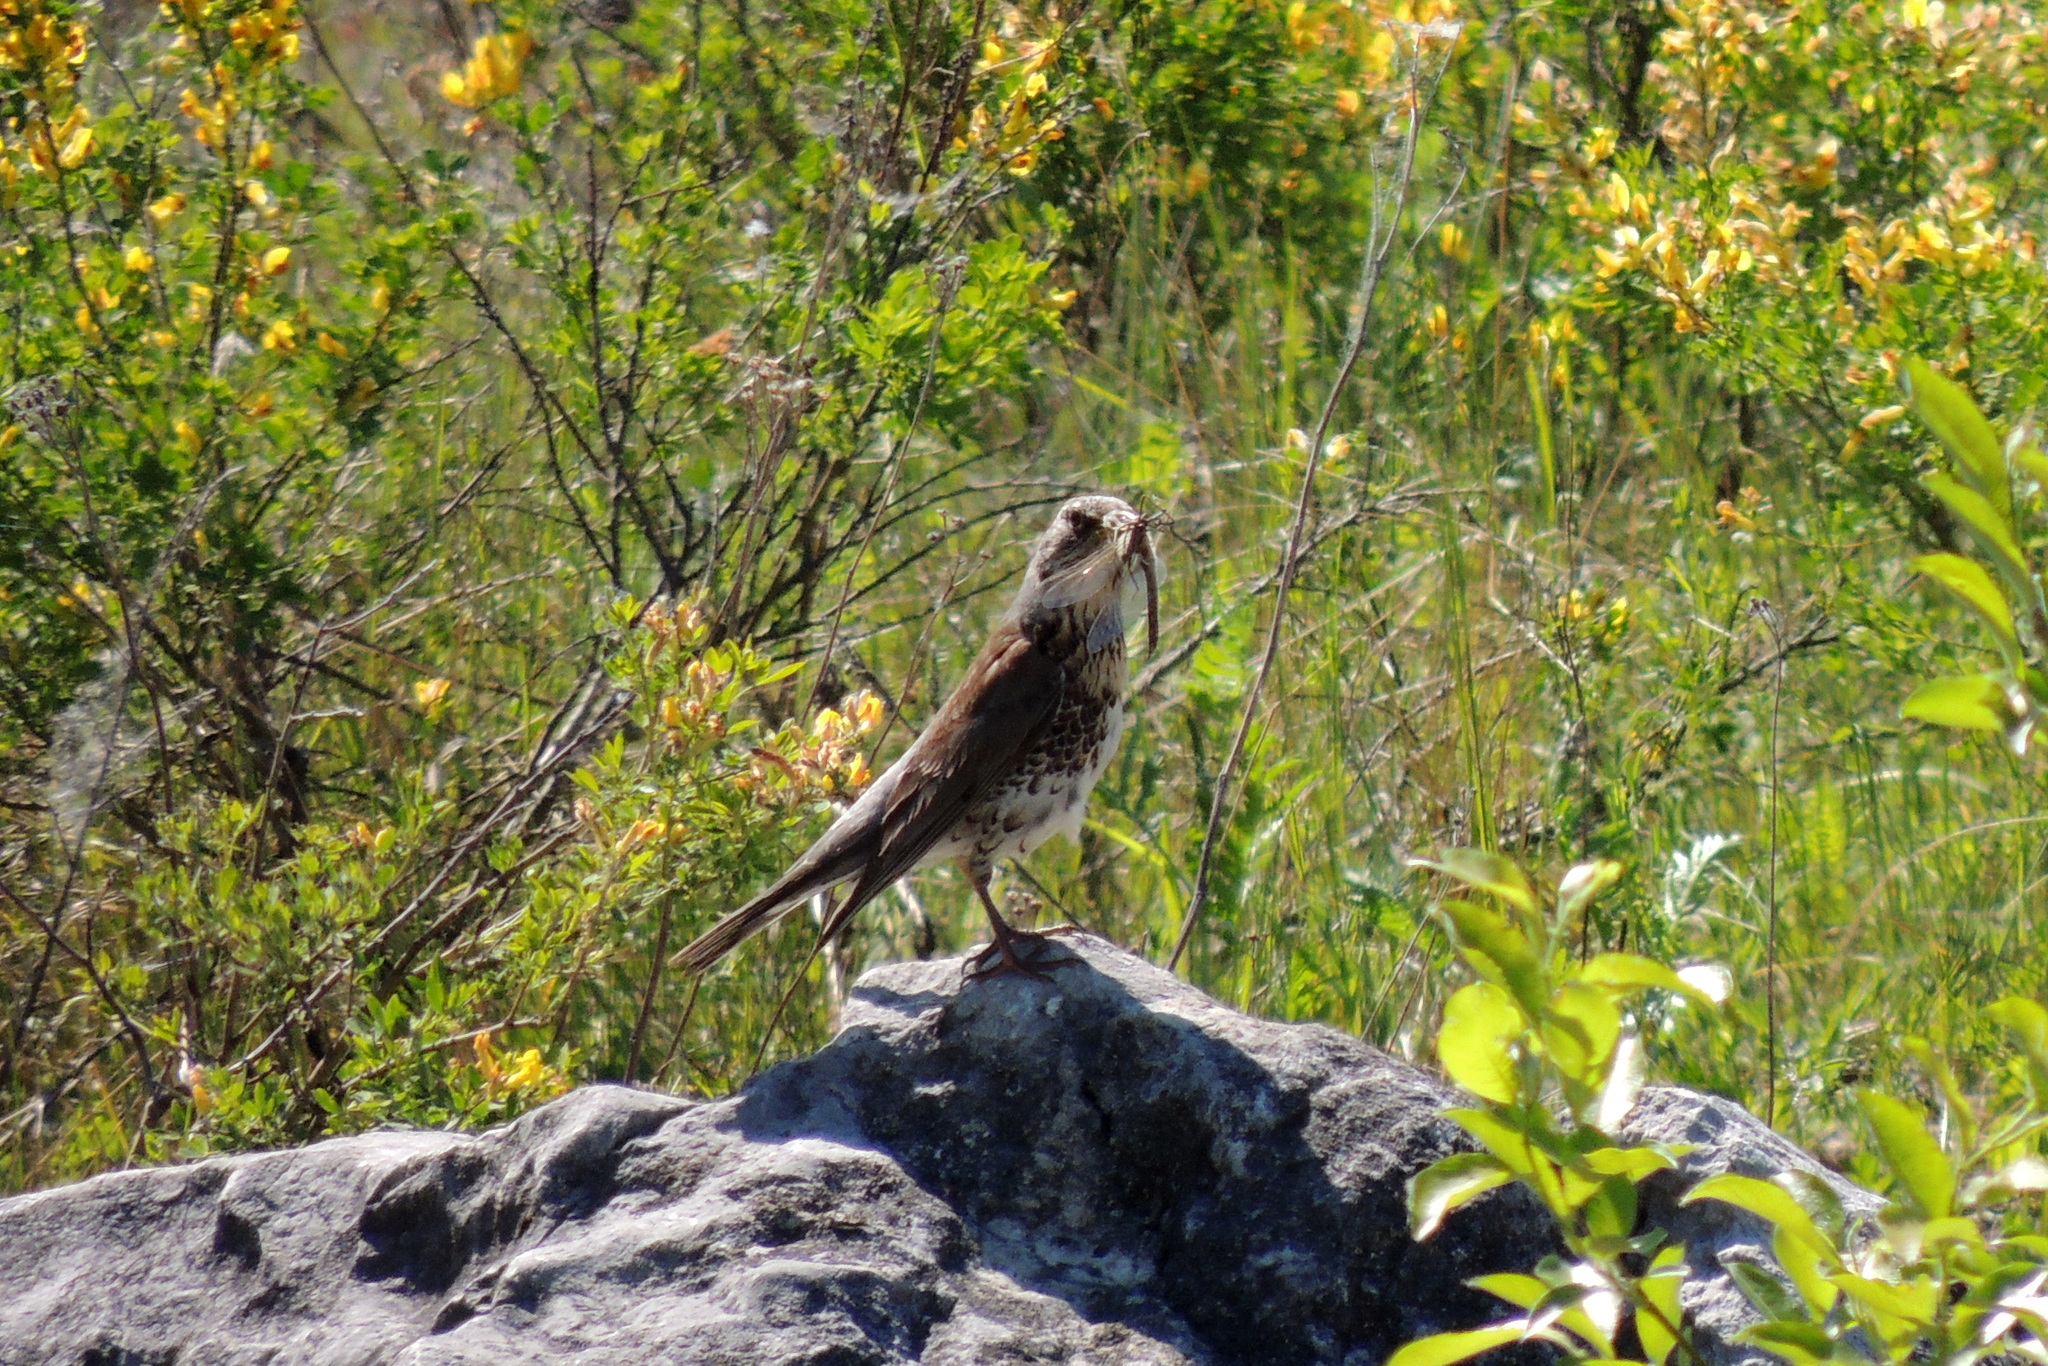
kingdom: Animalia
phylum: Chordata
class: Aves
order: Passeriformes
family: Turdidae
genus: Turdus
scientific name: Turdus pilaris
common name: Fieldfare
